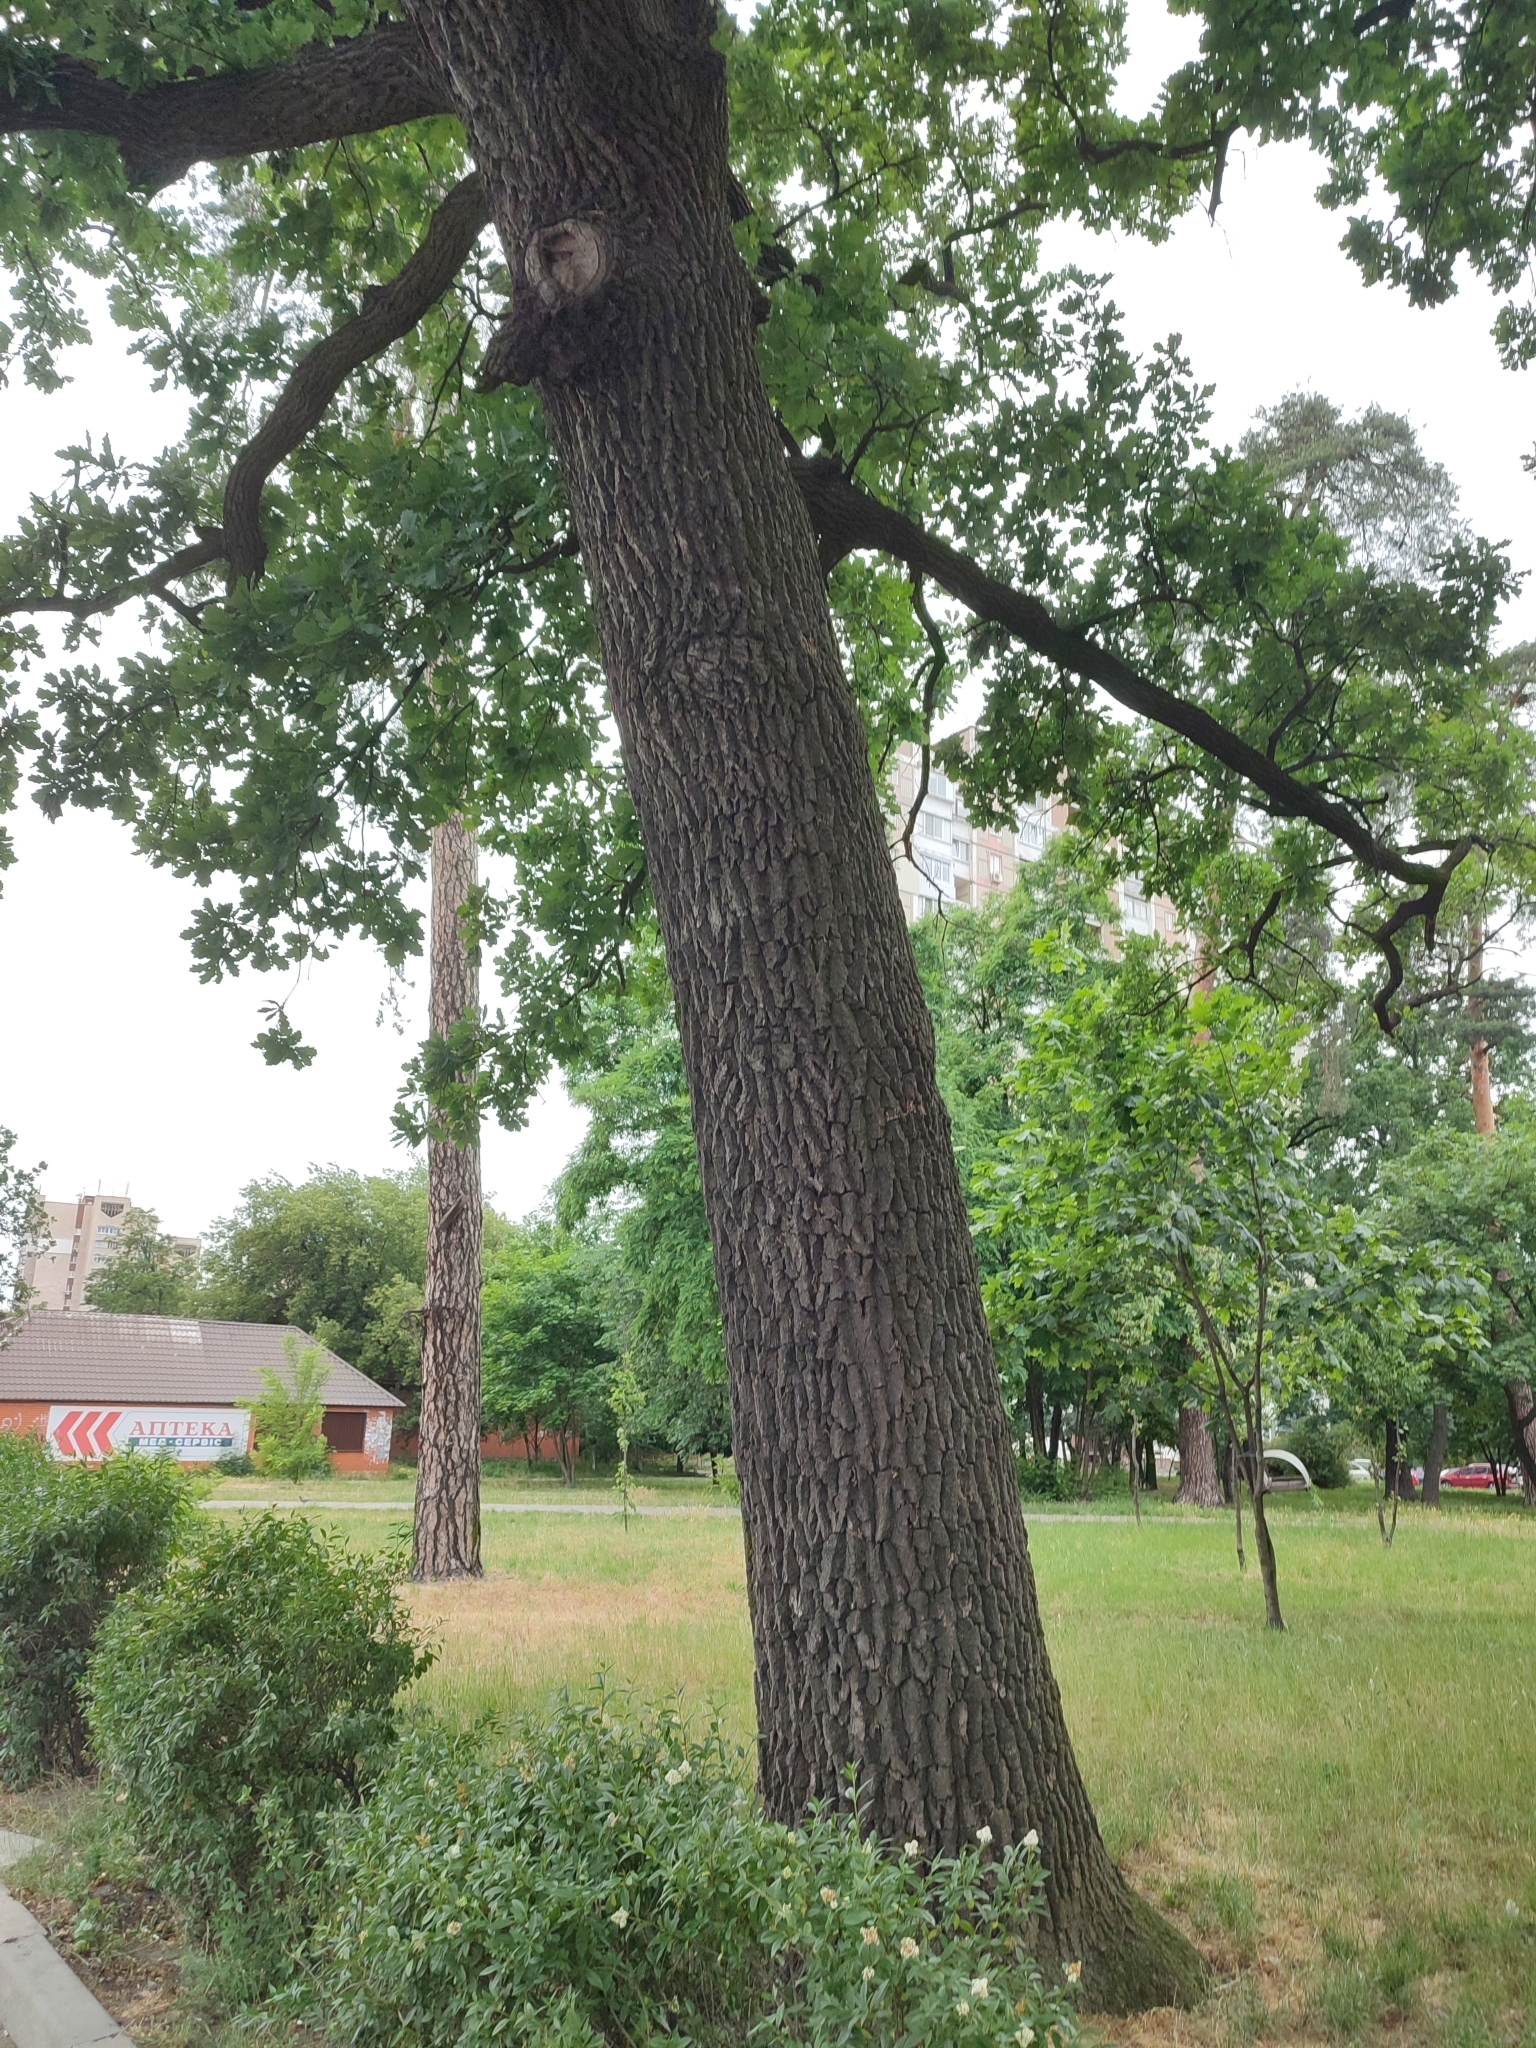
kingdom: Plantae
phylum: Tracheophyta
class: Magnoliopsida
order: Fagales
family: Fagaceae
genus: Quercus
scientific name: Quercus robur
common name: Pedunculate oak
